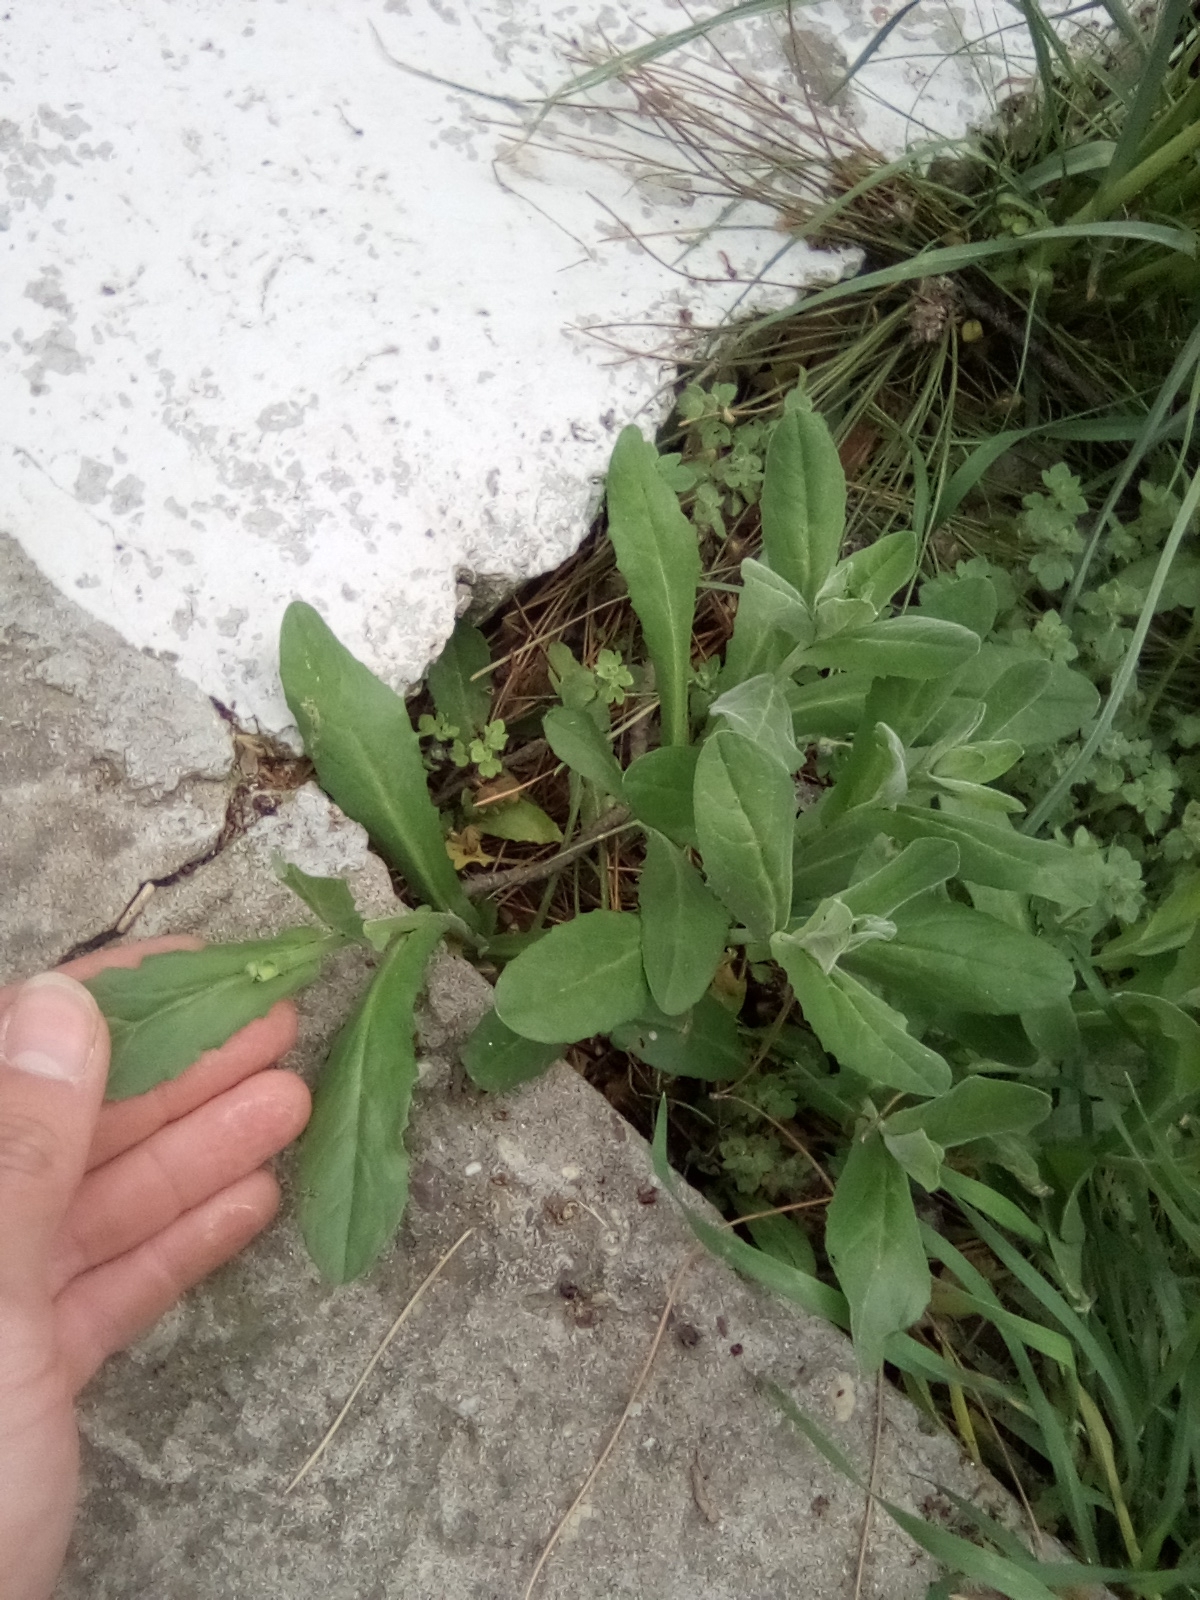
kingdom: Plantae
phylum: Tracheophyta
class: Magnoliopsida
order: Brassicales
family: Brassicaceae
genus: Lepidium
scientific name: Lepidium draba
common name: Hoary cress
